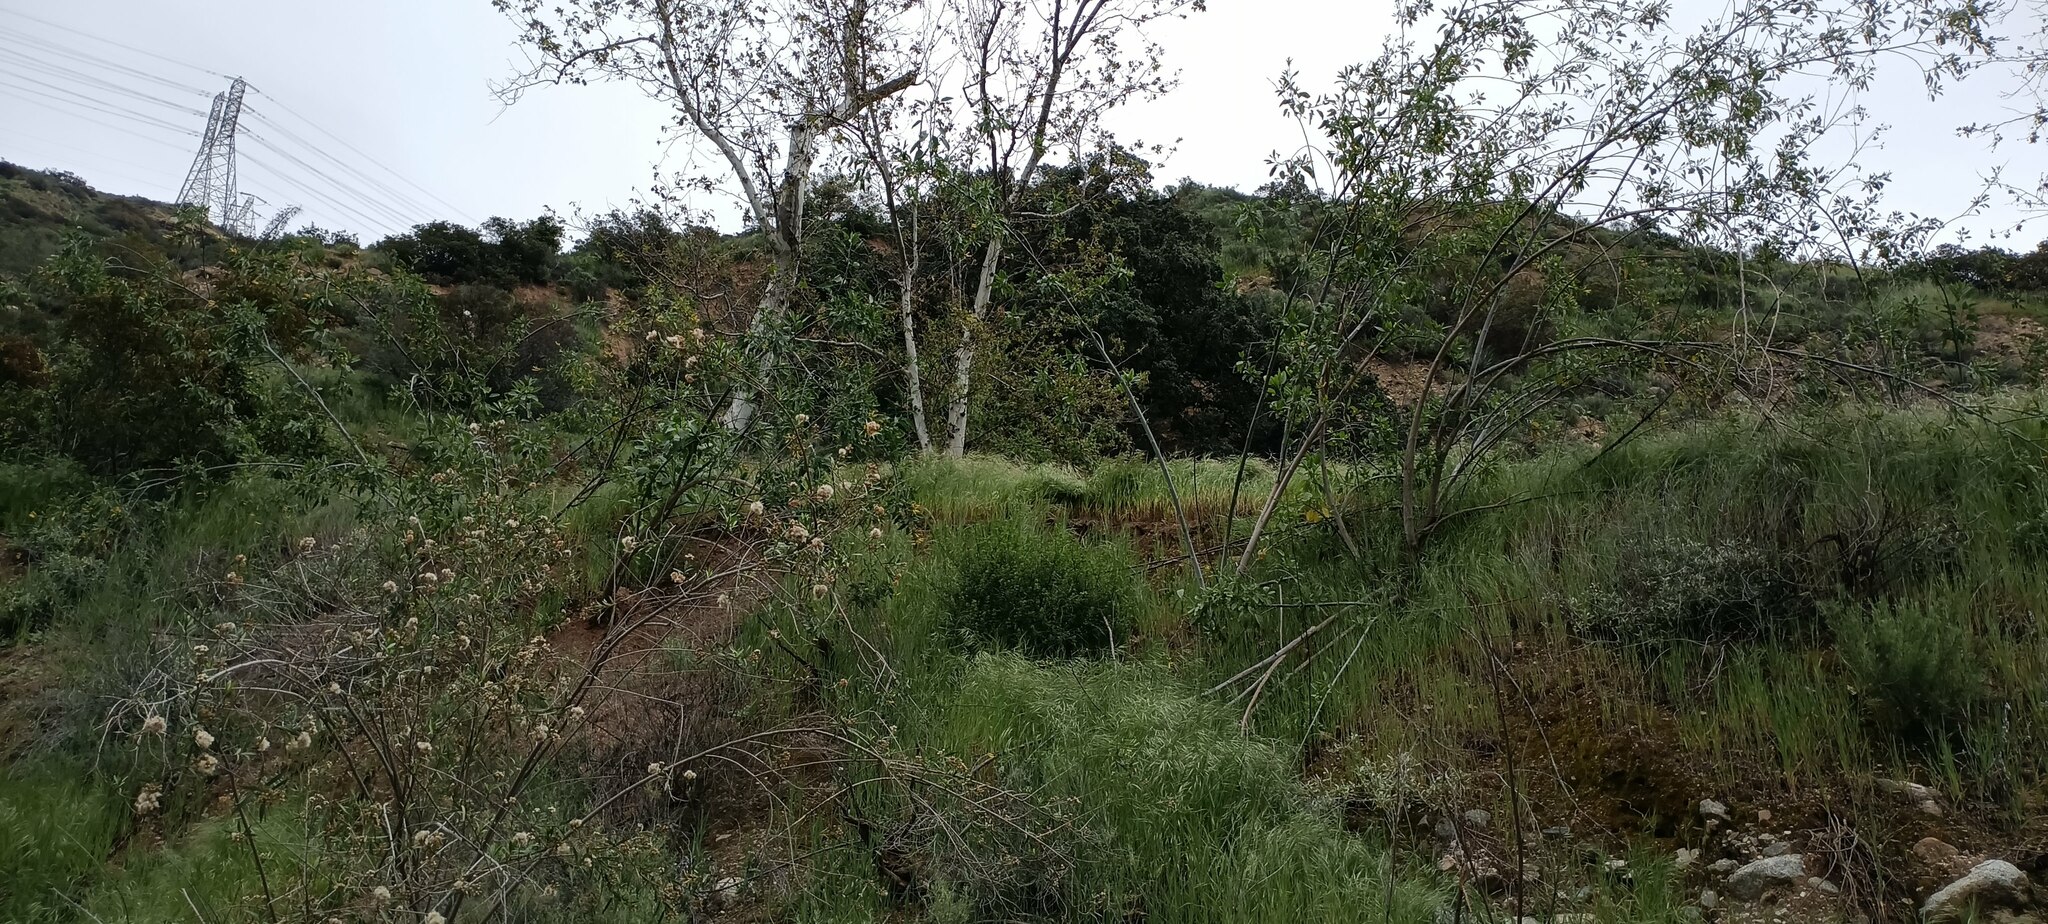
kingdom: Plantae
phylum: Tracheophyta
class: Magnoliopsida
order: Solanales
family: Solanaceae
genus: Nicotiana
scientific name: Nicotiana glauca
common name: Tree tobacco
